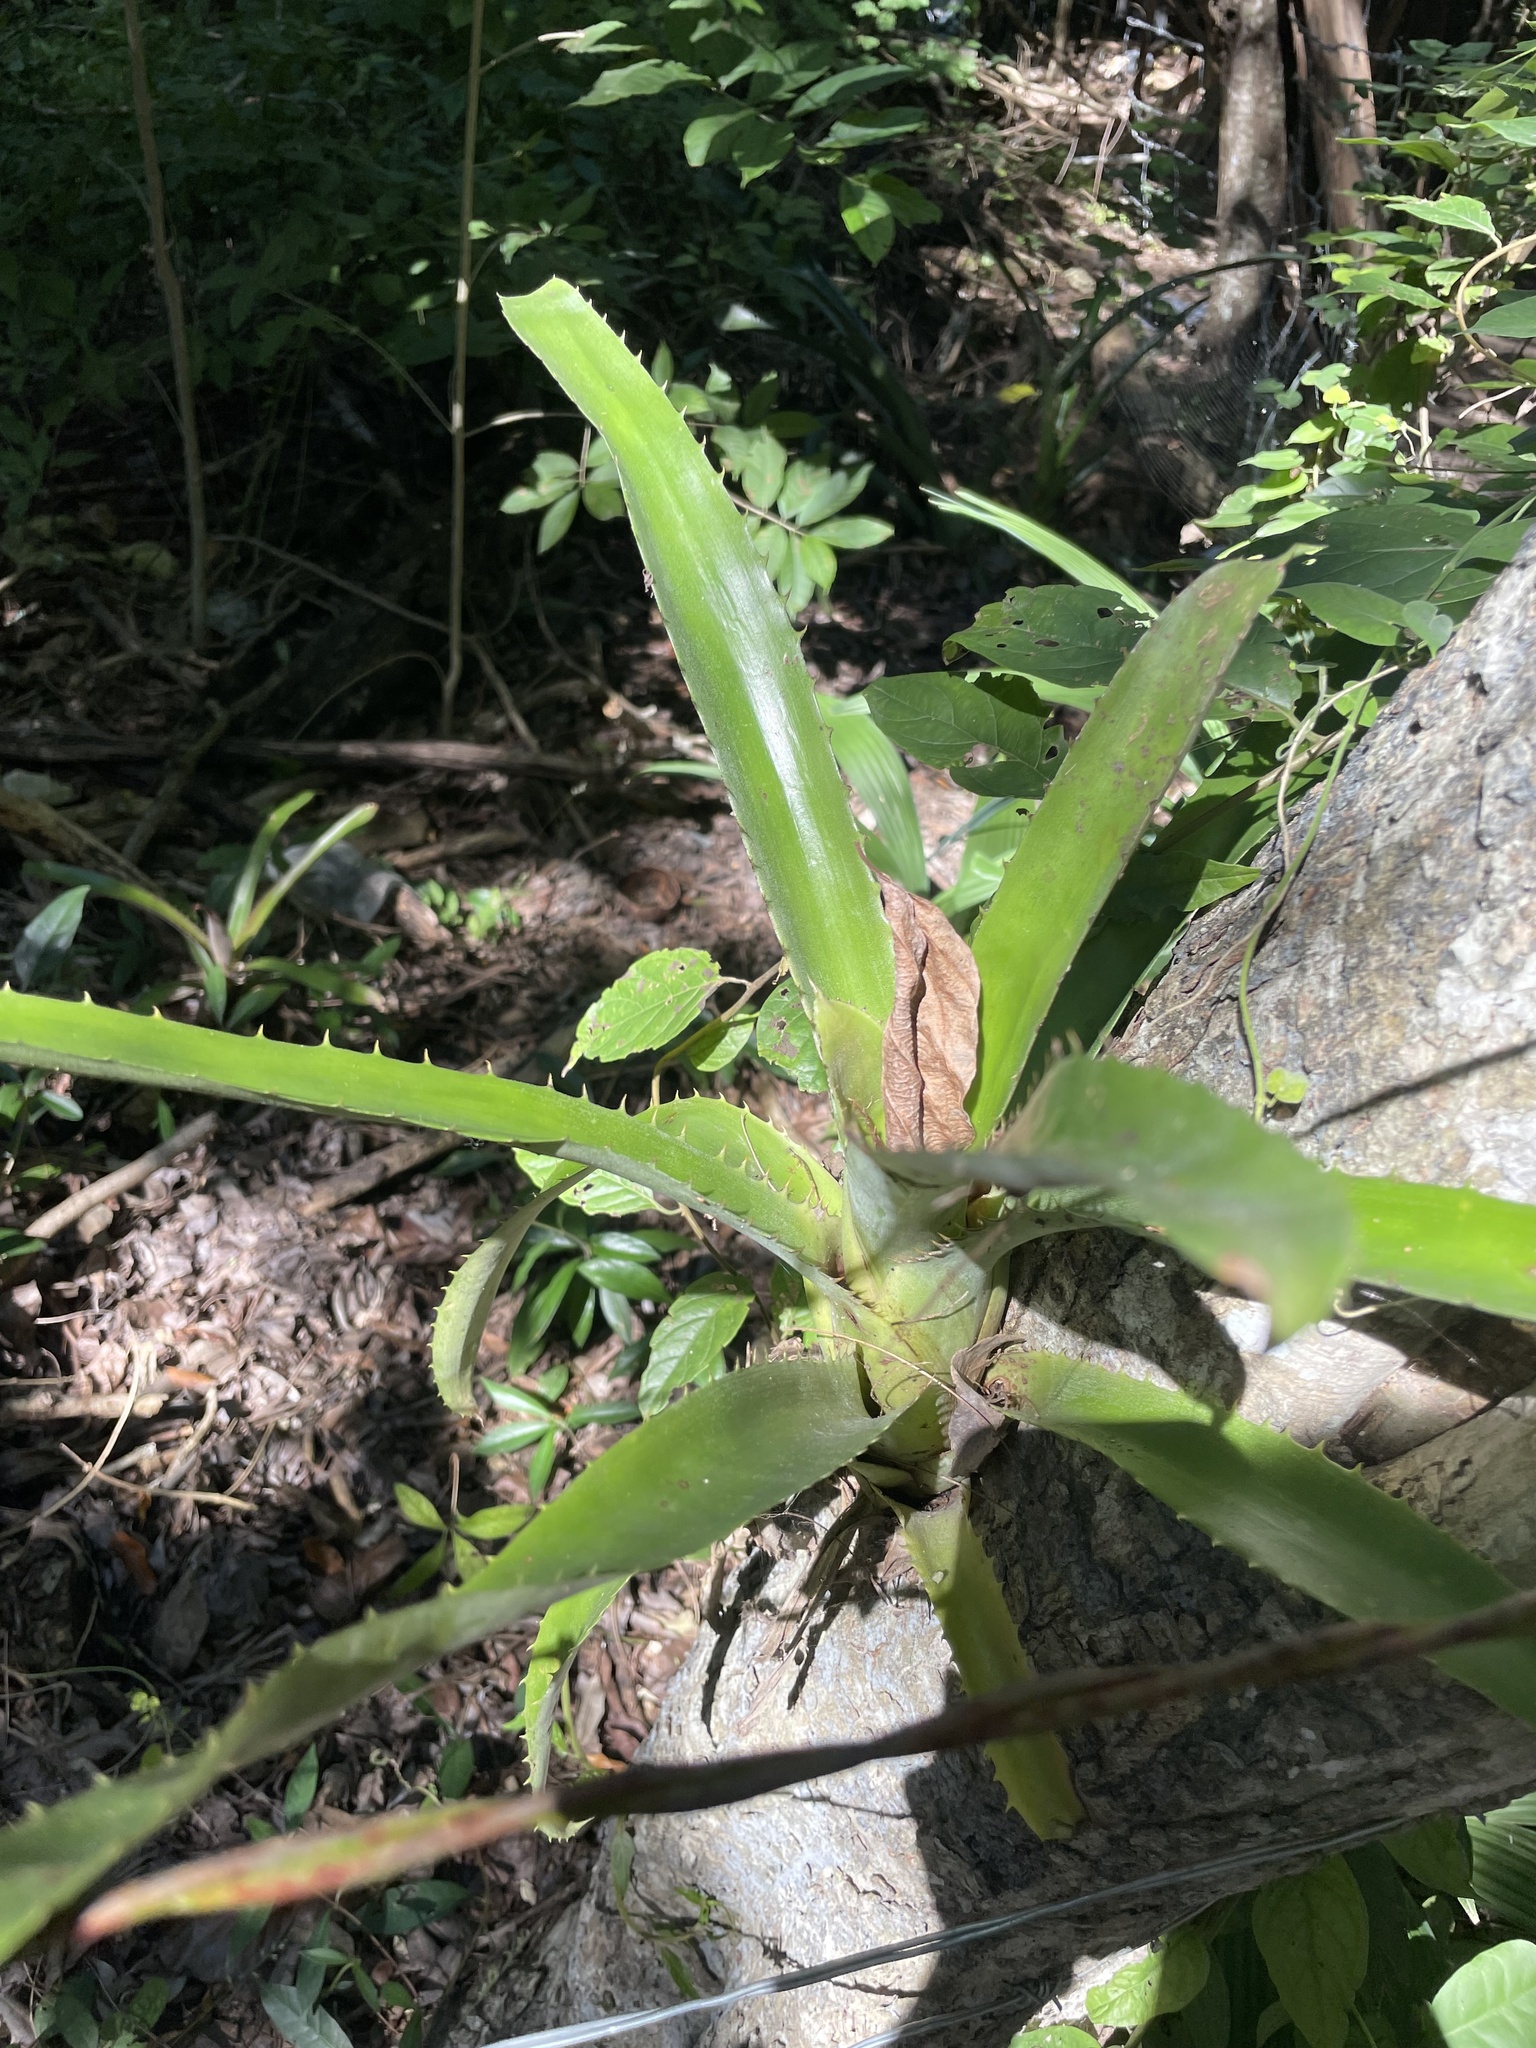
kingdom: Plantae
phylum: Tracheophyta
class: Liliopsida
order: Poales
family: Bromeliaceae
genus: Aechmea
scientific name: Aechmea bracteata
